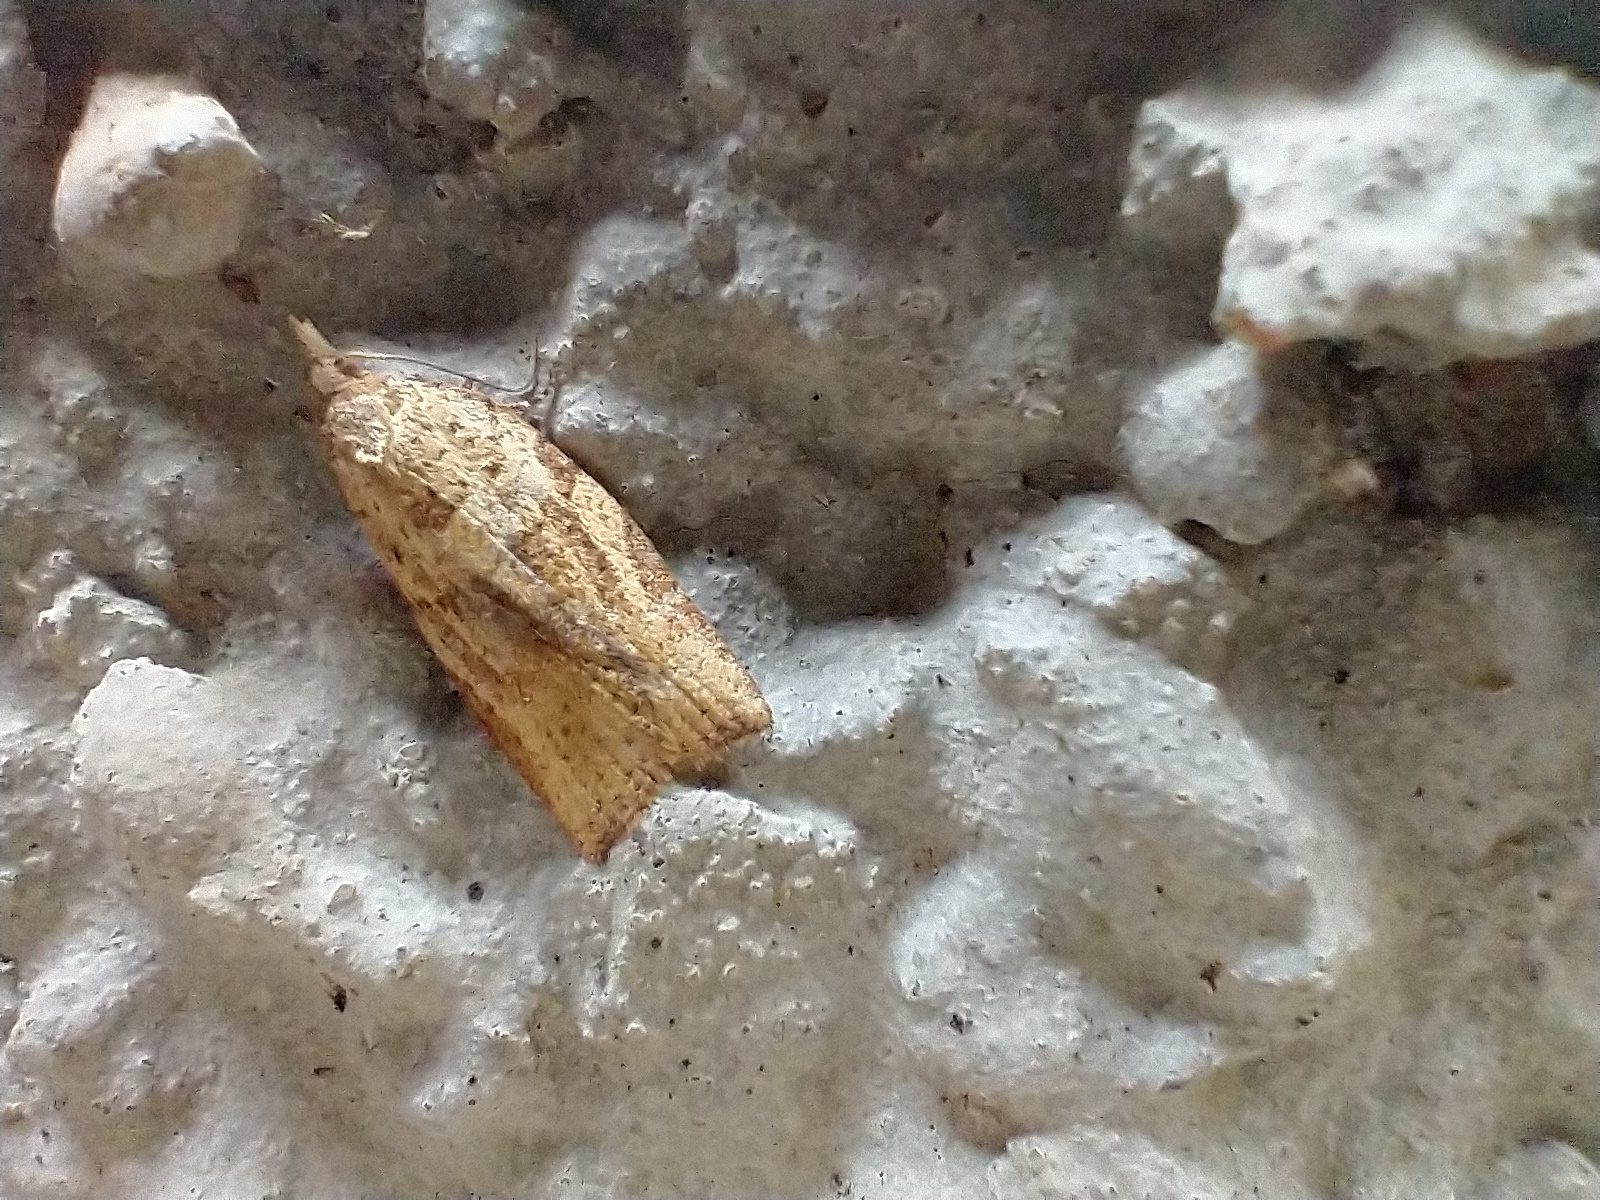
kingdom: Animalia
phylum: Arthropoda
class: Insecta
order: Lepidoptera
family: Tortricidae
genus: Epiphyas
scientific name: Epiphyas postvittana
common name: Light brown apple moth
